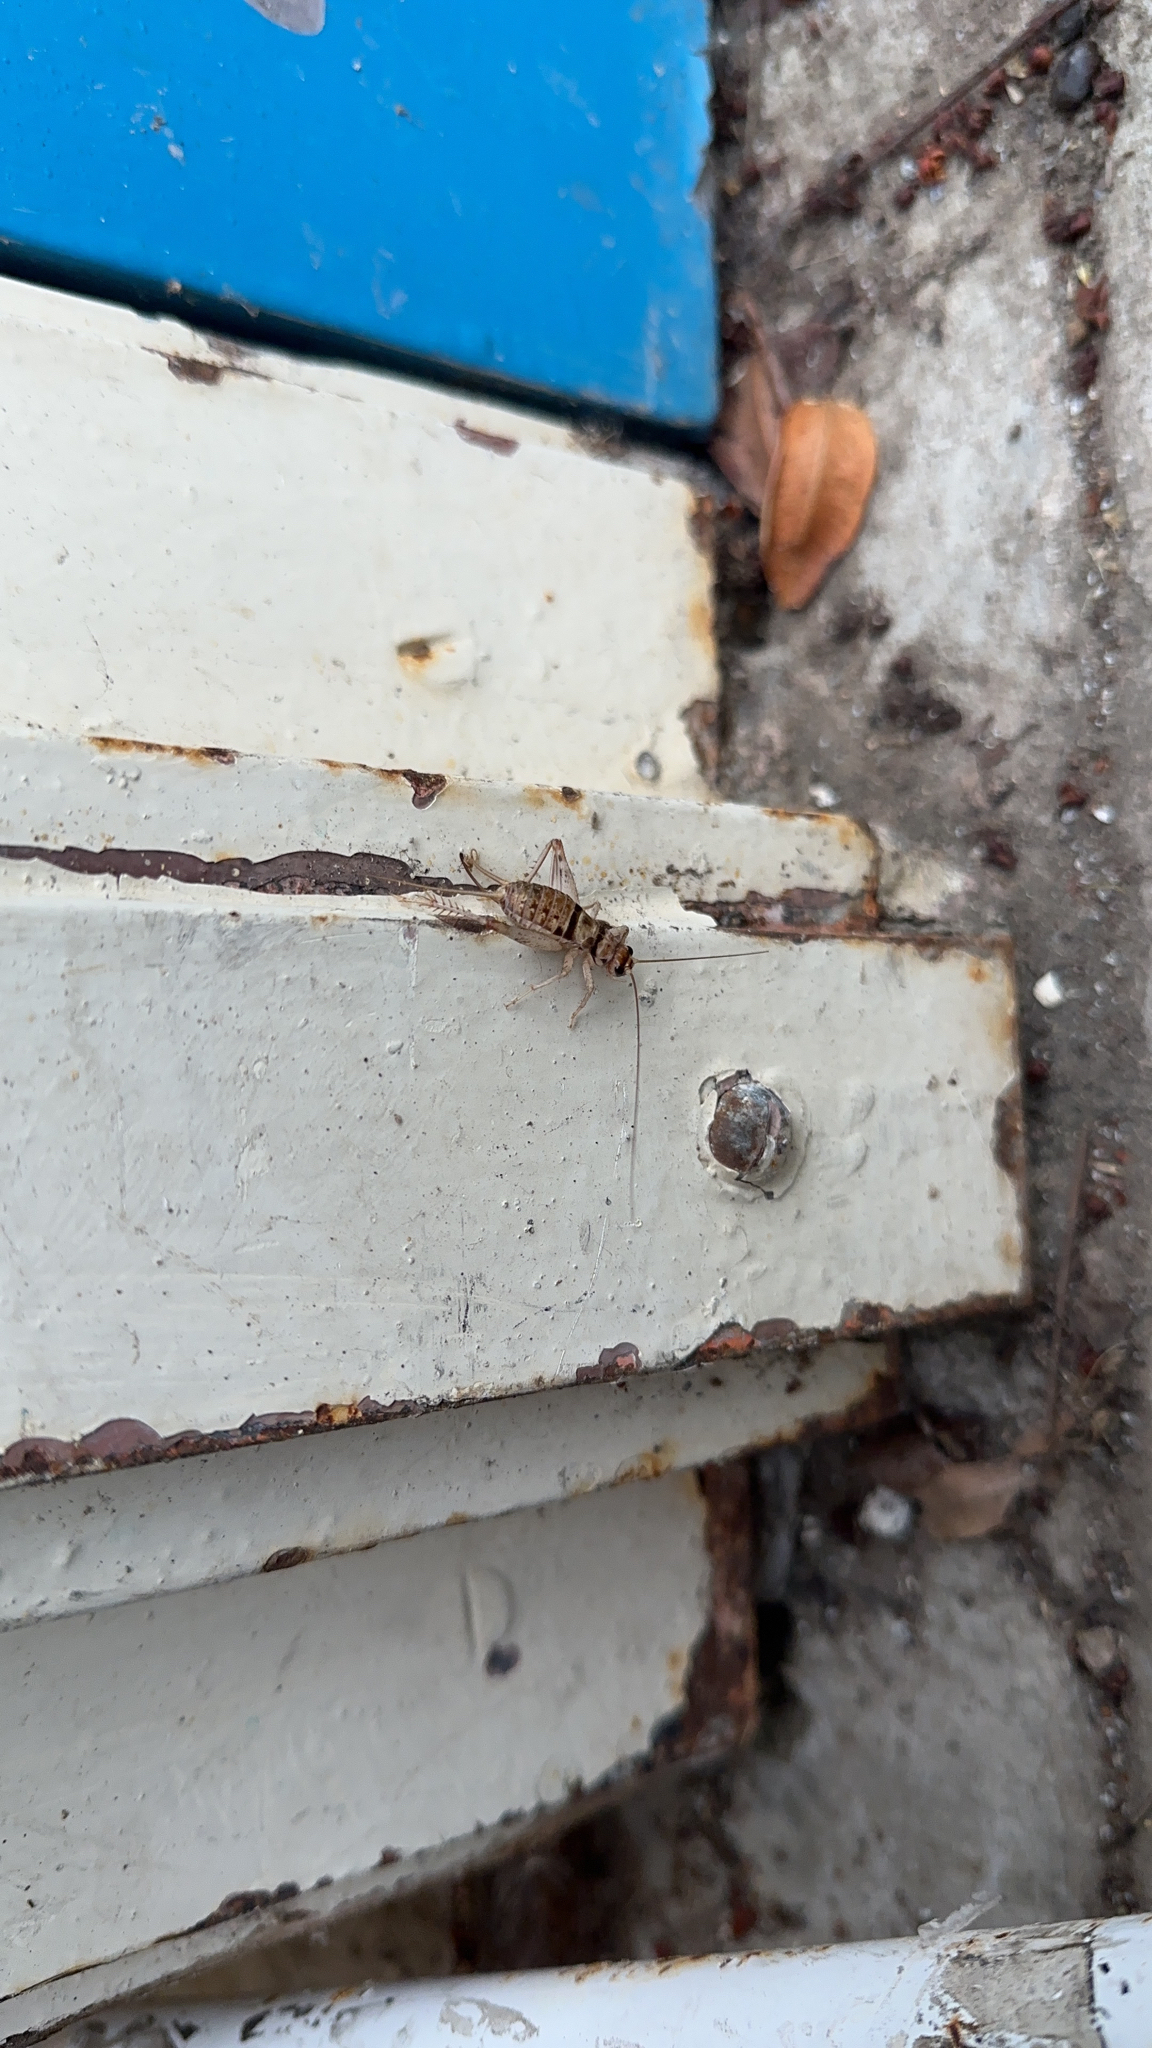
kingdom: Animalia
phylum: Arthropoda
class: Insecta
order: Orthoptera
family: Gryllidae
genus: Gryllodes
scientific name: Gryllodes sigillatus
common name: Tropical house cricket
